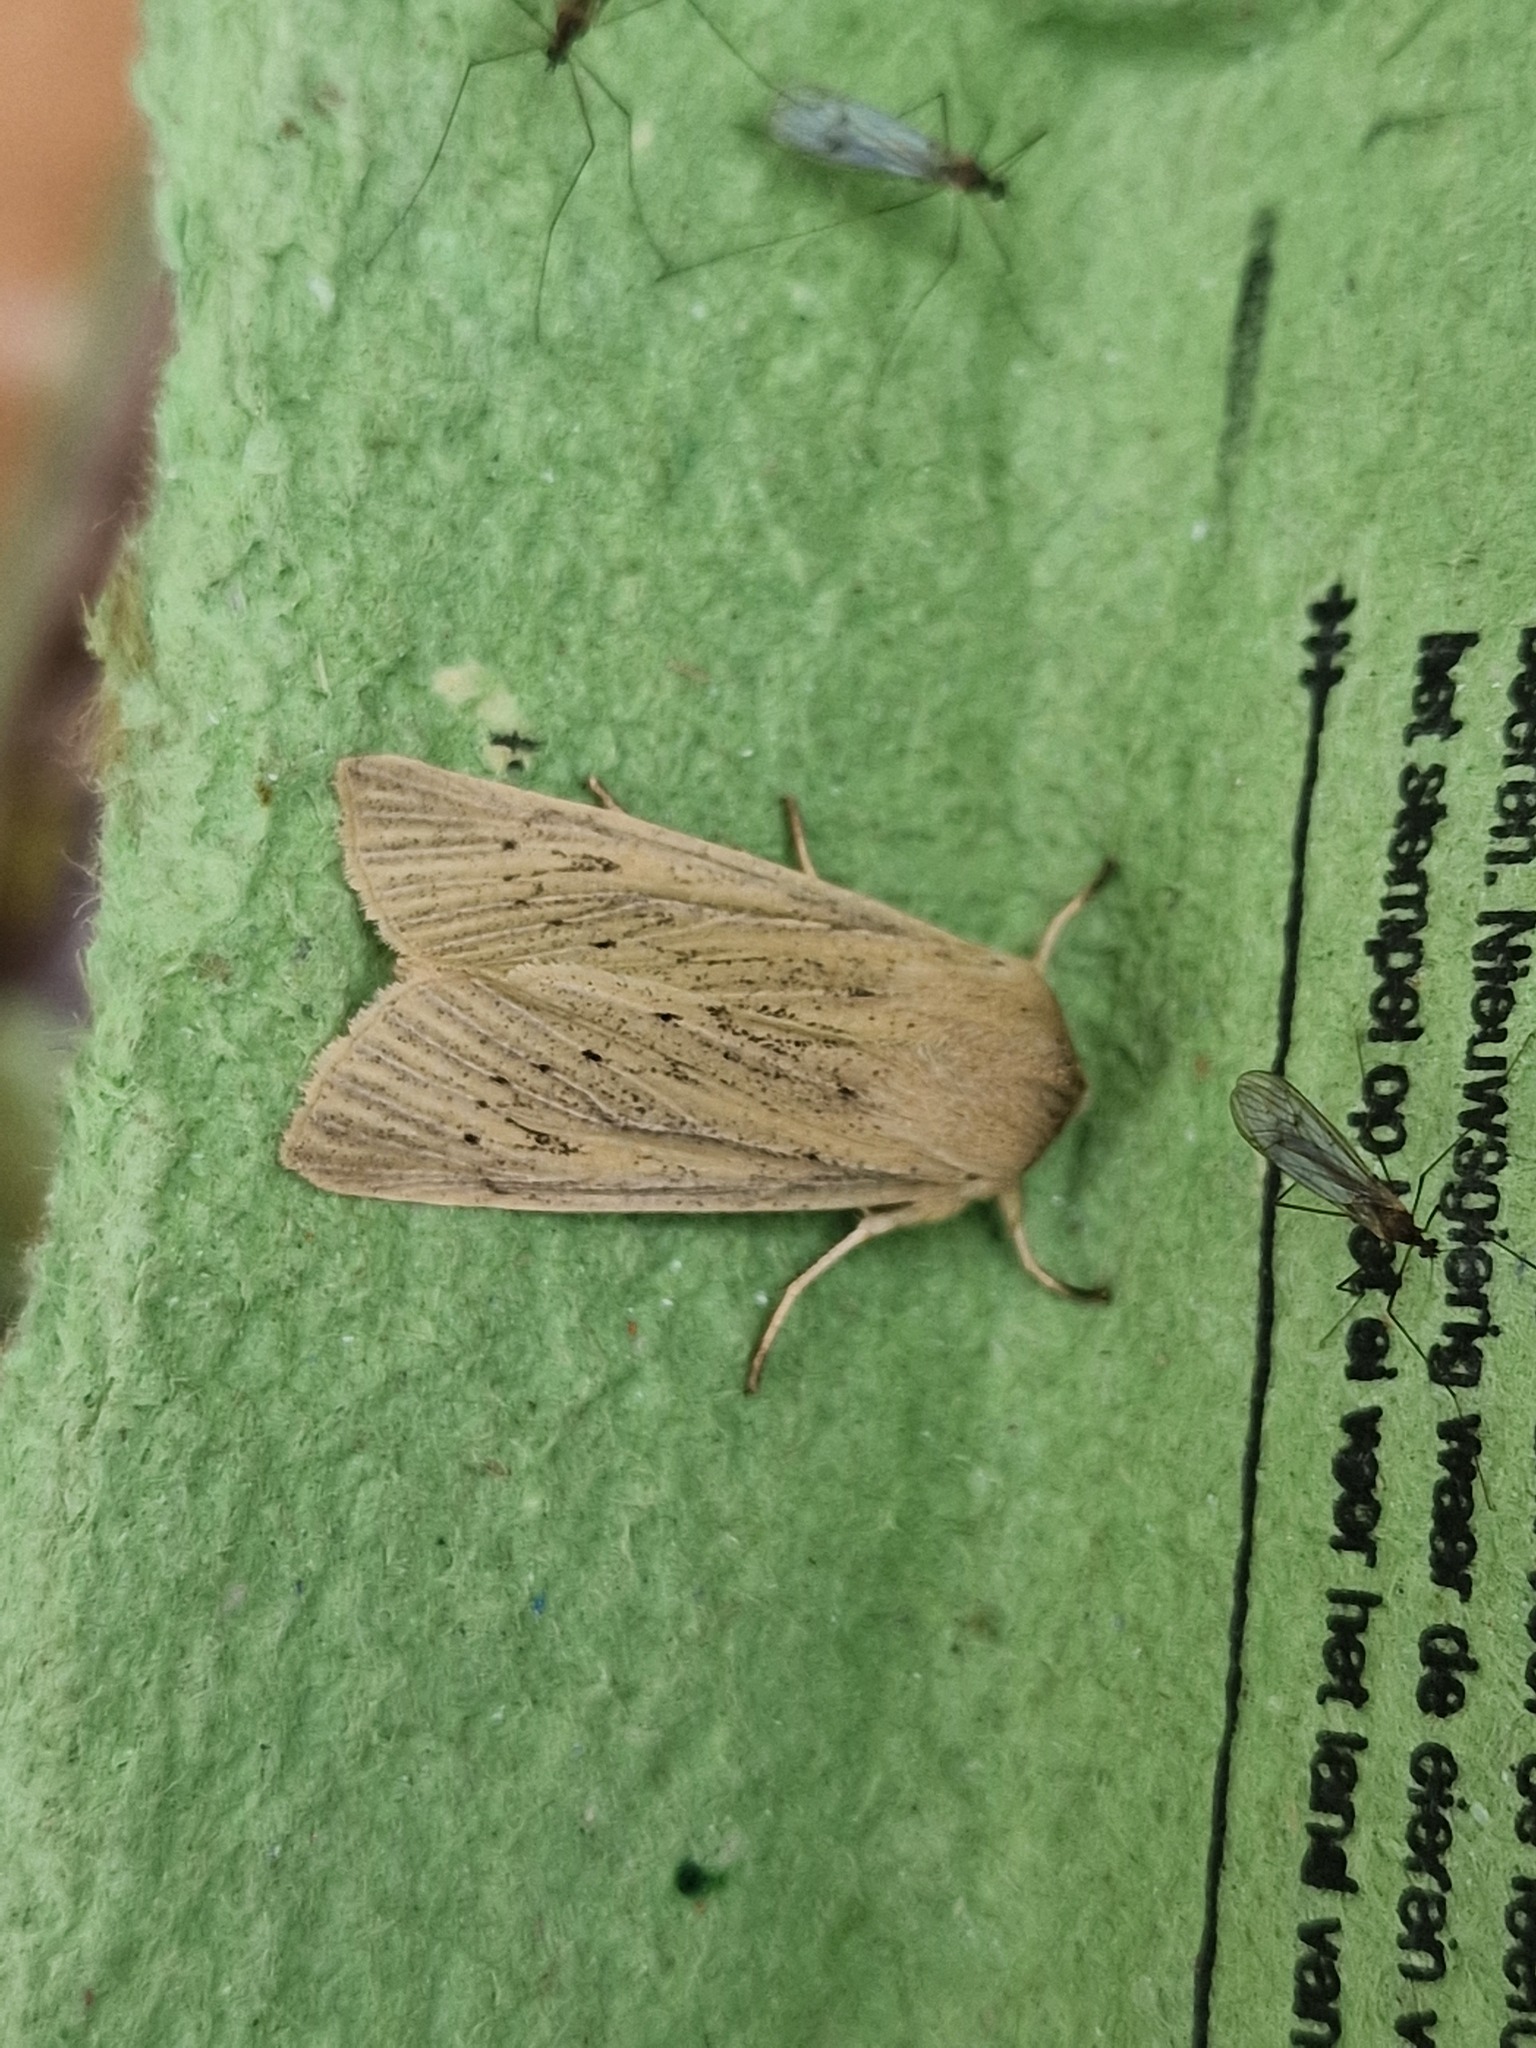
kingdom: Animalia
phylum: Arthropoda
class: Insecta
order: Lepidoptera
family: Noctuidae
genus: Rhizedra
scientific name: Rhizedra lutosa
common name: Large wainscot
